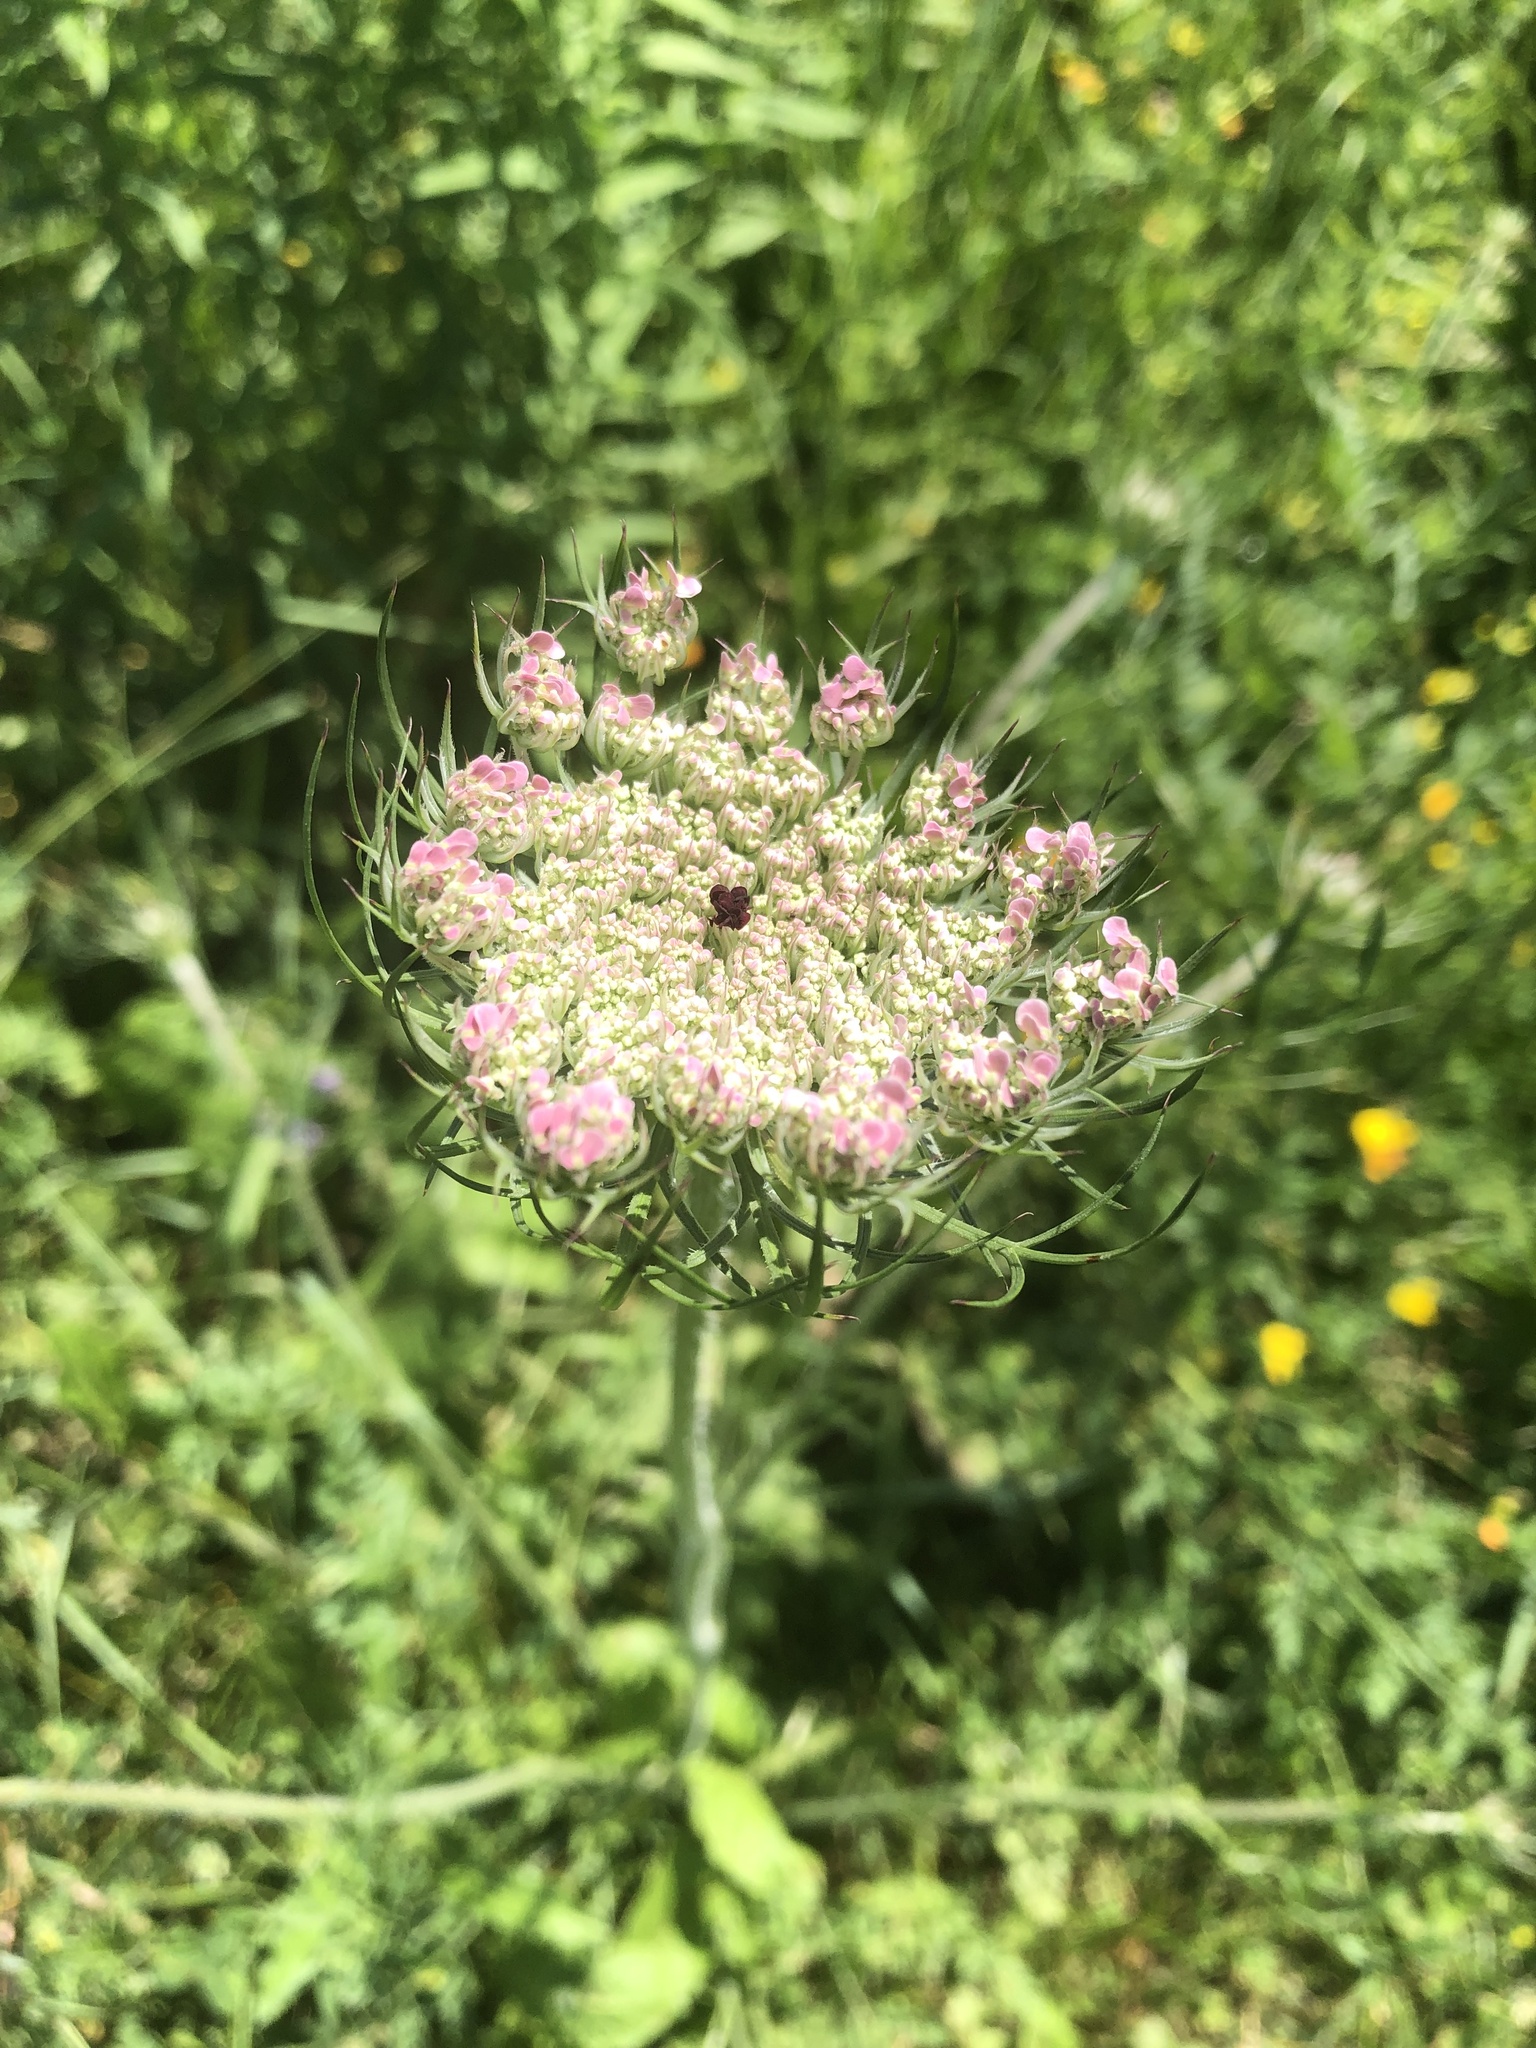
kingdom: Plantae
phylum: Tracheophyta
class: Magnoliopsida
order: Apiales
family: Apiaceae
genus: Daucus
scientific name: Daucus carota
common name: Wild carrot
